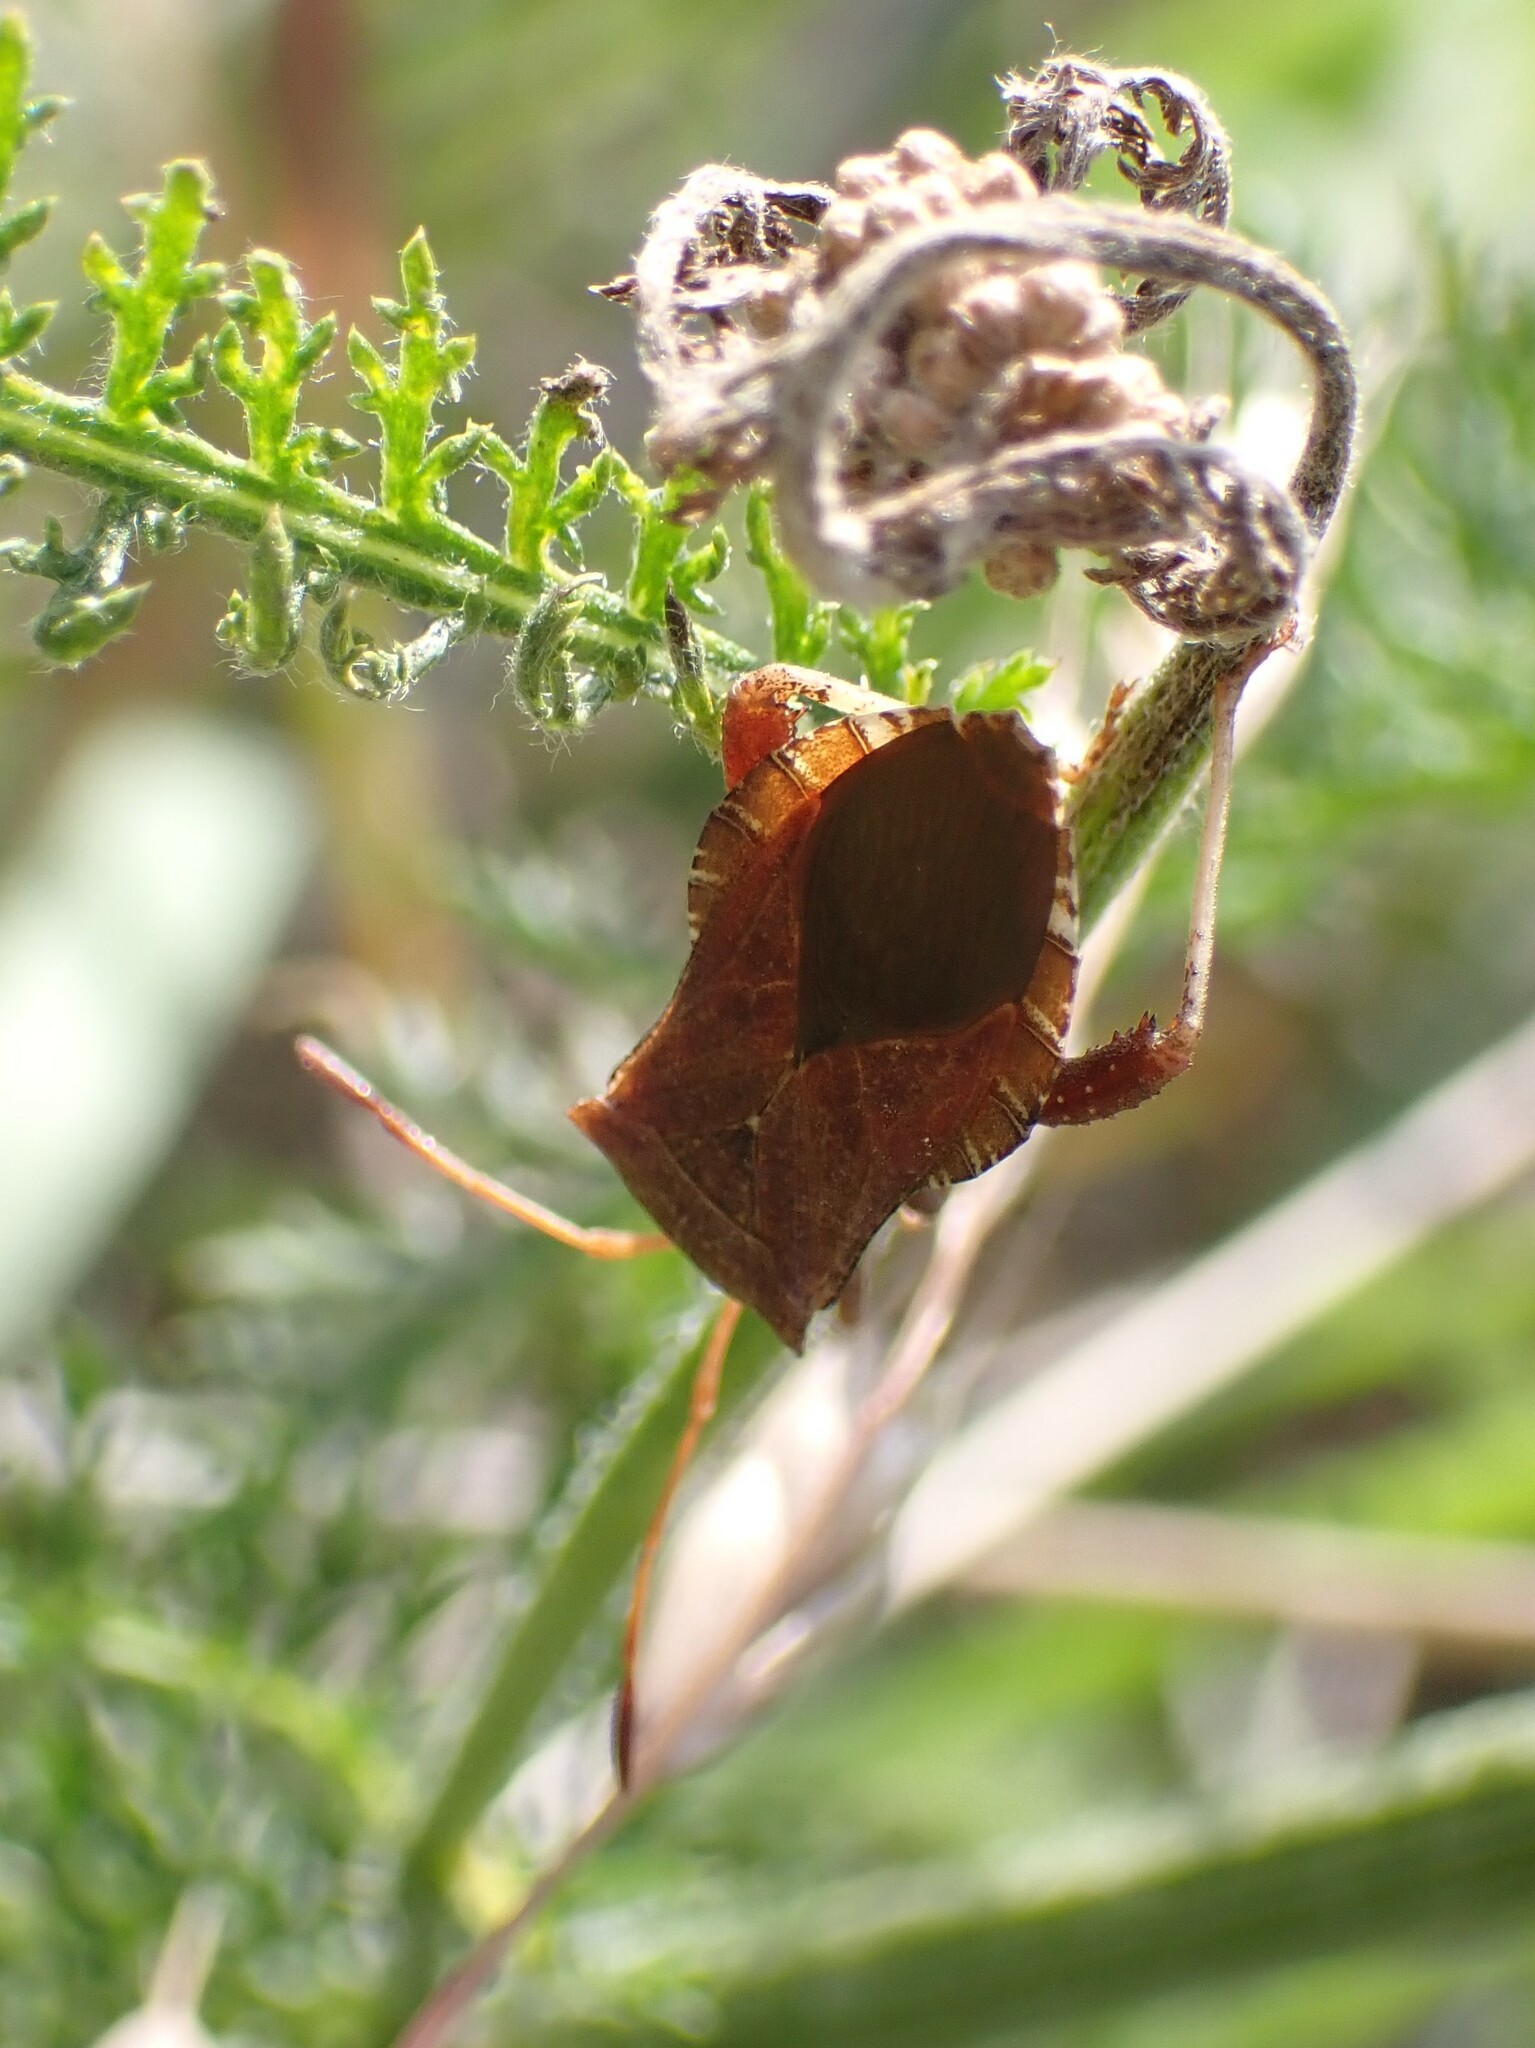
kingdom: Animalia
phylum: Arthropoda
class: Insecta
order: Hemiptera
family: Coreidae
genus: Euthochtha
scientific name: Euthochtha galeator
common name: Helmeted squash bug
